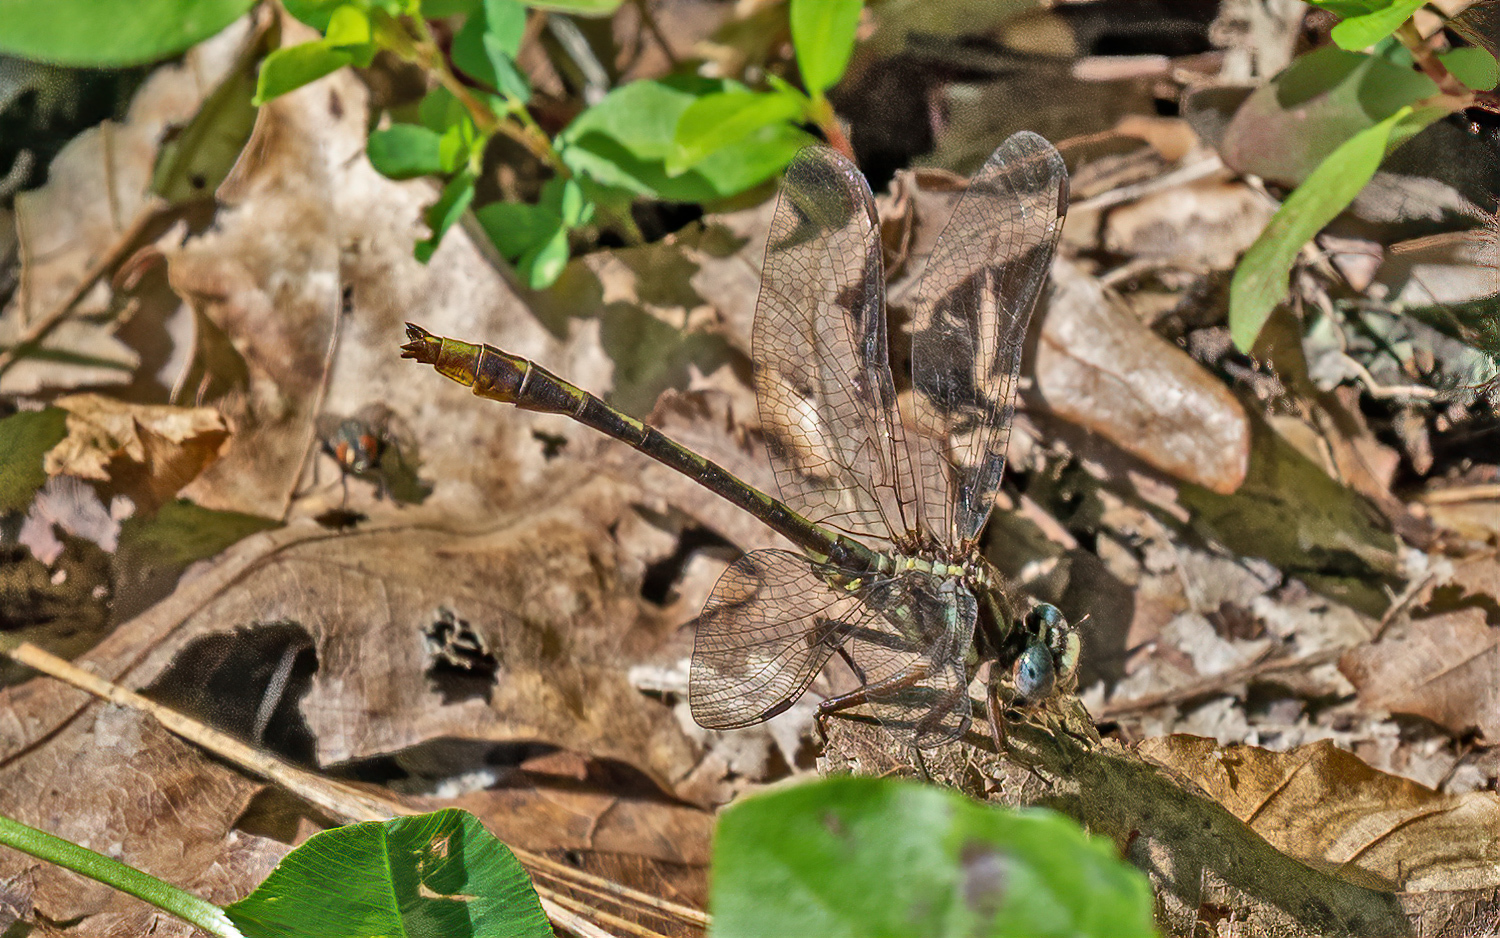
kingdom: Animalia
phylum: Arthropoda
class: Insecta
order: Odonata
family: Gomphidae
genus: Phanogomphus
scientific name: Phanogomphus exilis
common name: Lancet clubtail
